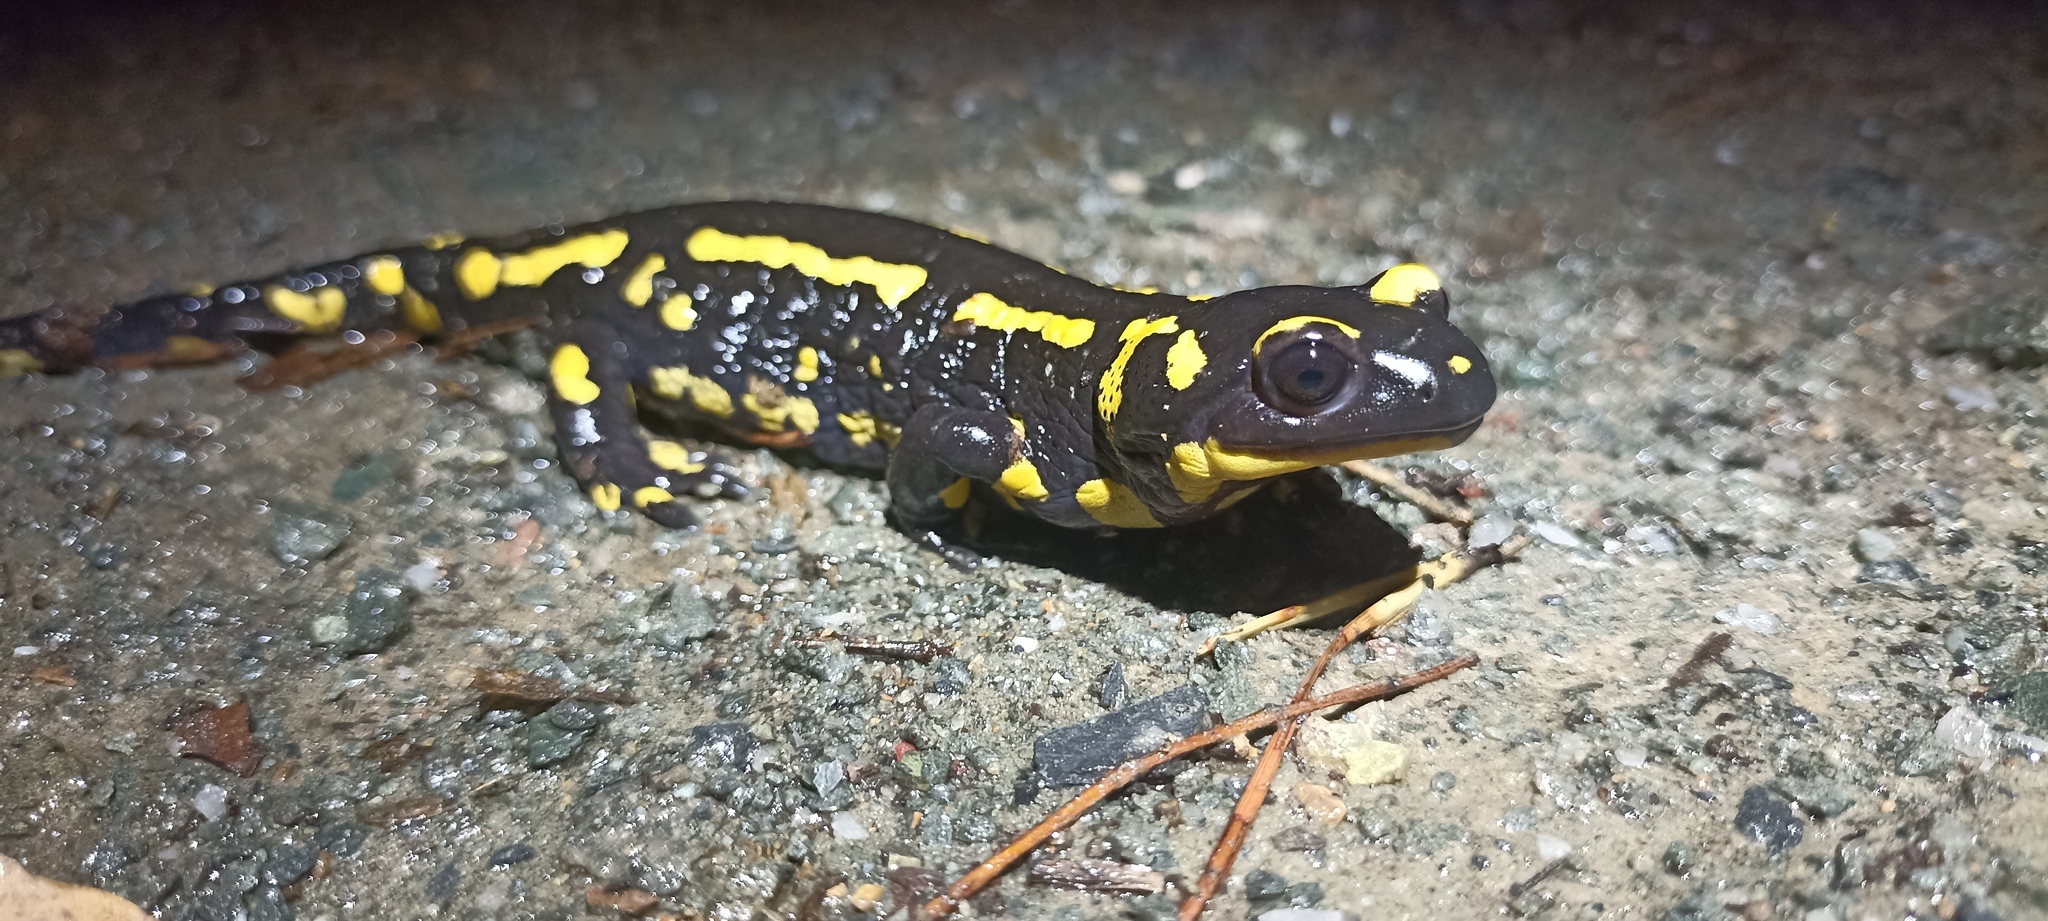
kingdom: Animalia
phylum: Chordata
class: Amphibia
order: Caudata
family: Salamandridae
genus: Salamandra
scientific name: Salamandra salamandra
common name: Fire salamander
